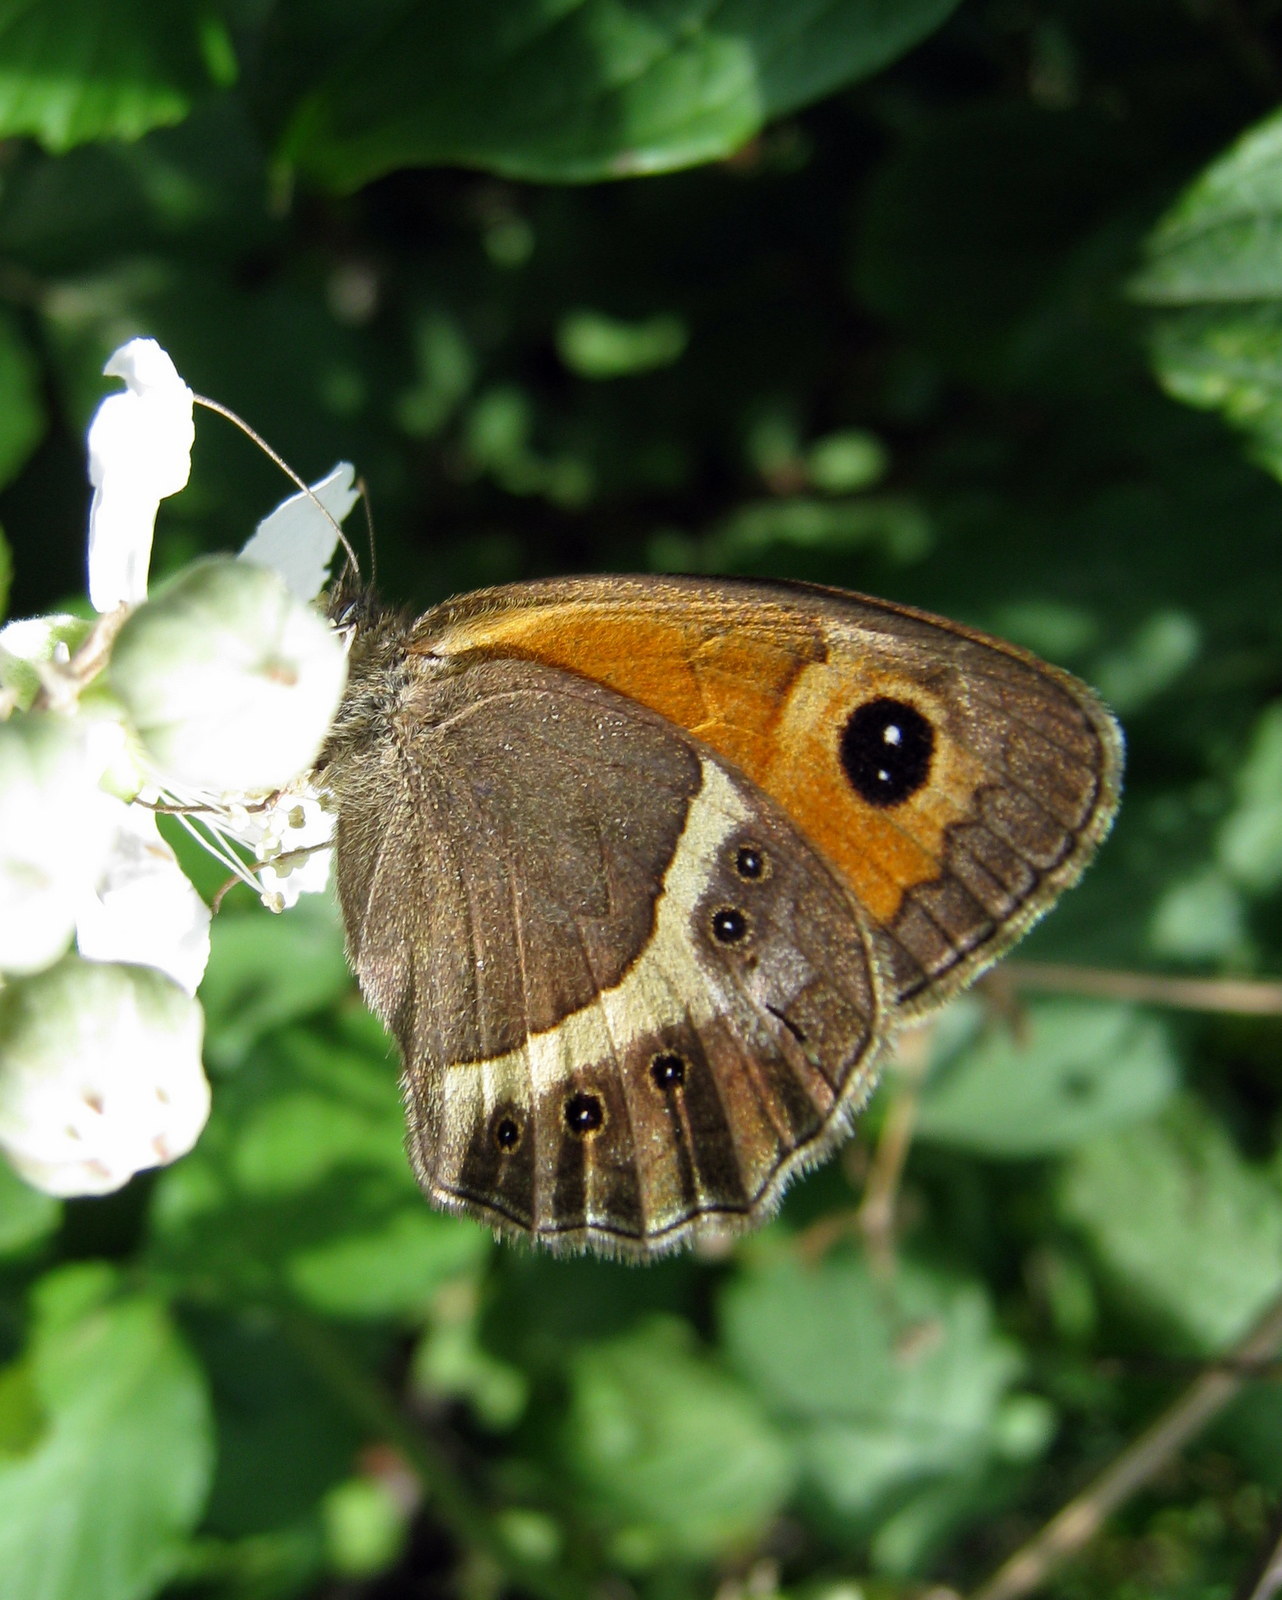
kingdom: Animalia
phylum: Arthropoda
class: Insecta
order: Lepidoptera
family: Nymphalidae
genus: Pyronia
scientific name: Pyronia bathseba
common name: Spanish gatekeeper
